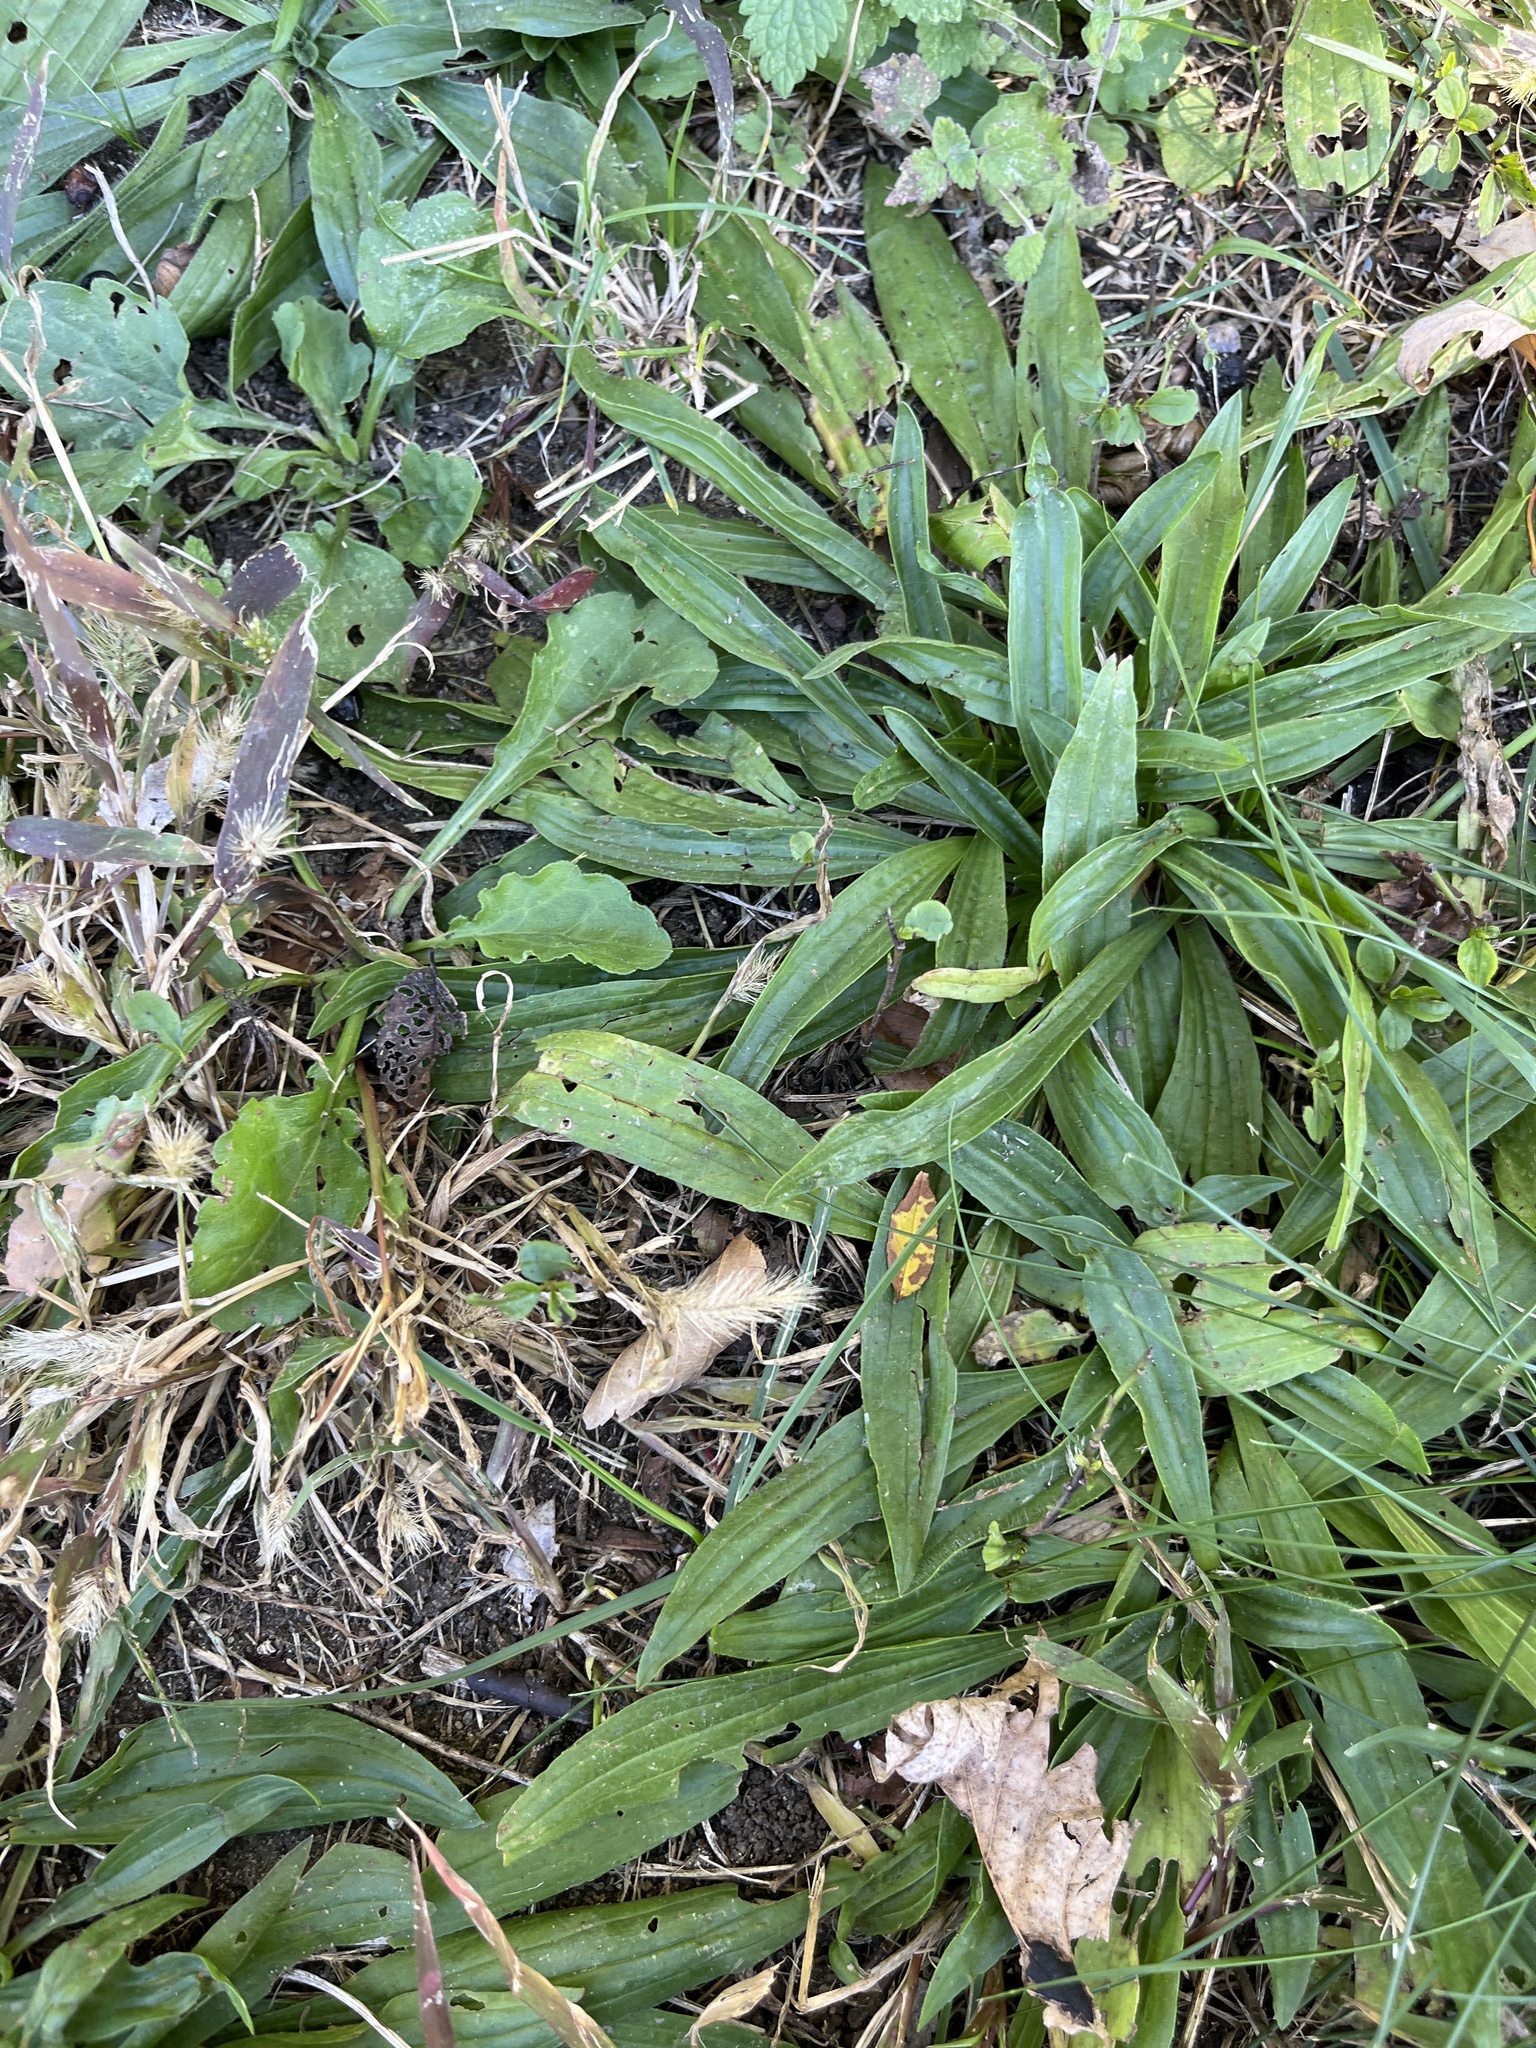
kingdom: Plantae
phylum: Tracheophyta
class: Magnoliopsida
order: Lamiales
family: Plantaginaceae
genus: Plantago
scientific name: Plantago lanceolata
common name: Ribwort plantain
